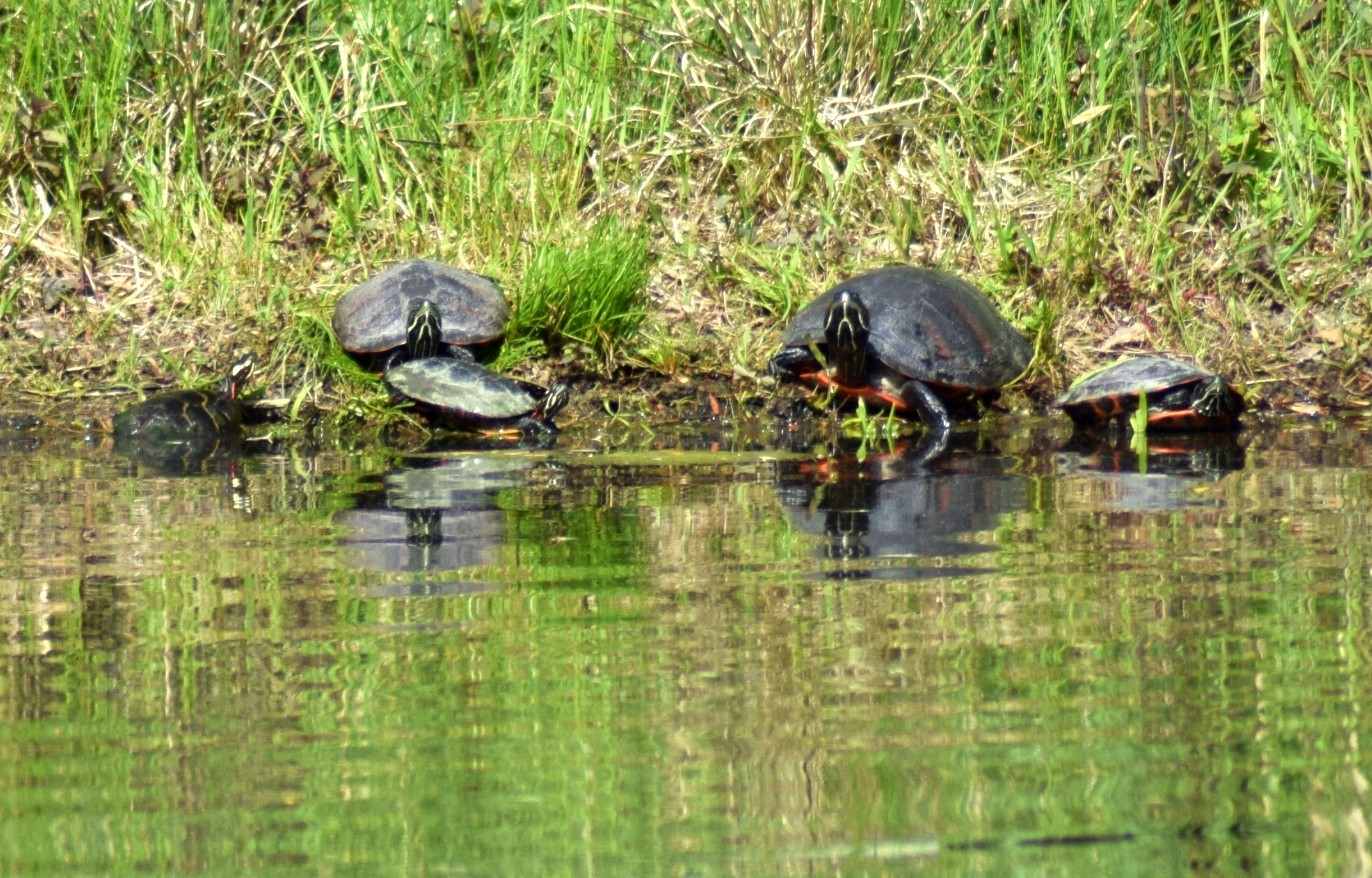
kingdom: Animalia
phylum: Chordata
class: Testudines
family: Emydidae
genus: Pseudemys
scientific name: Pseudemys rubriventris
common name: American red-bellied turtle
